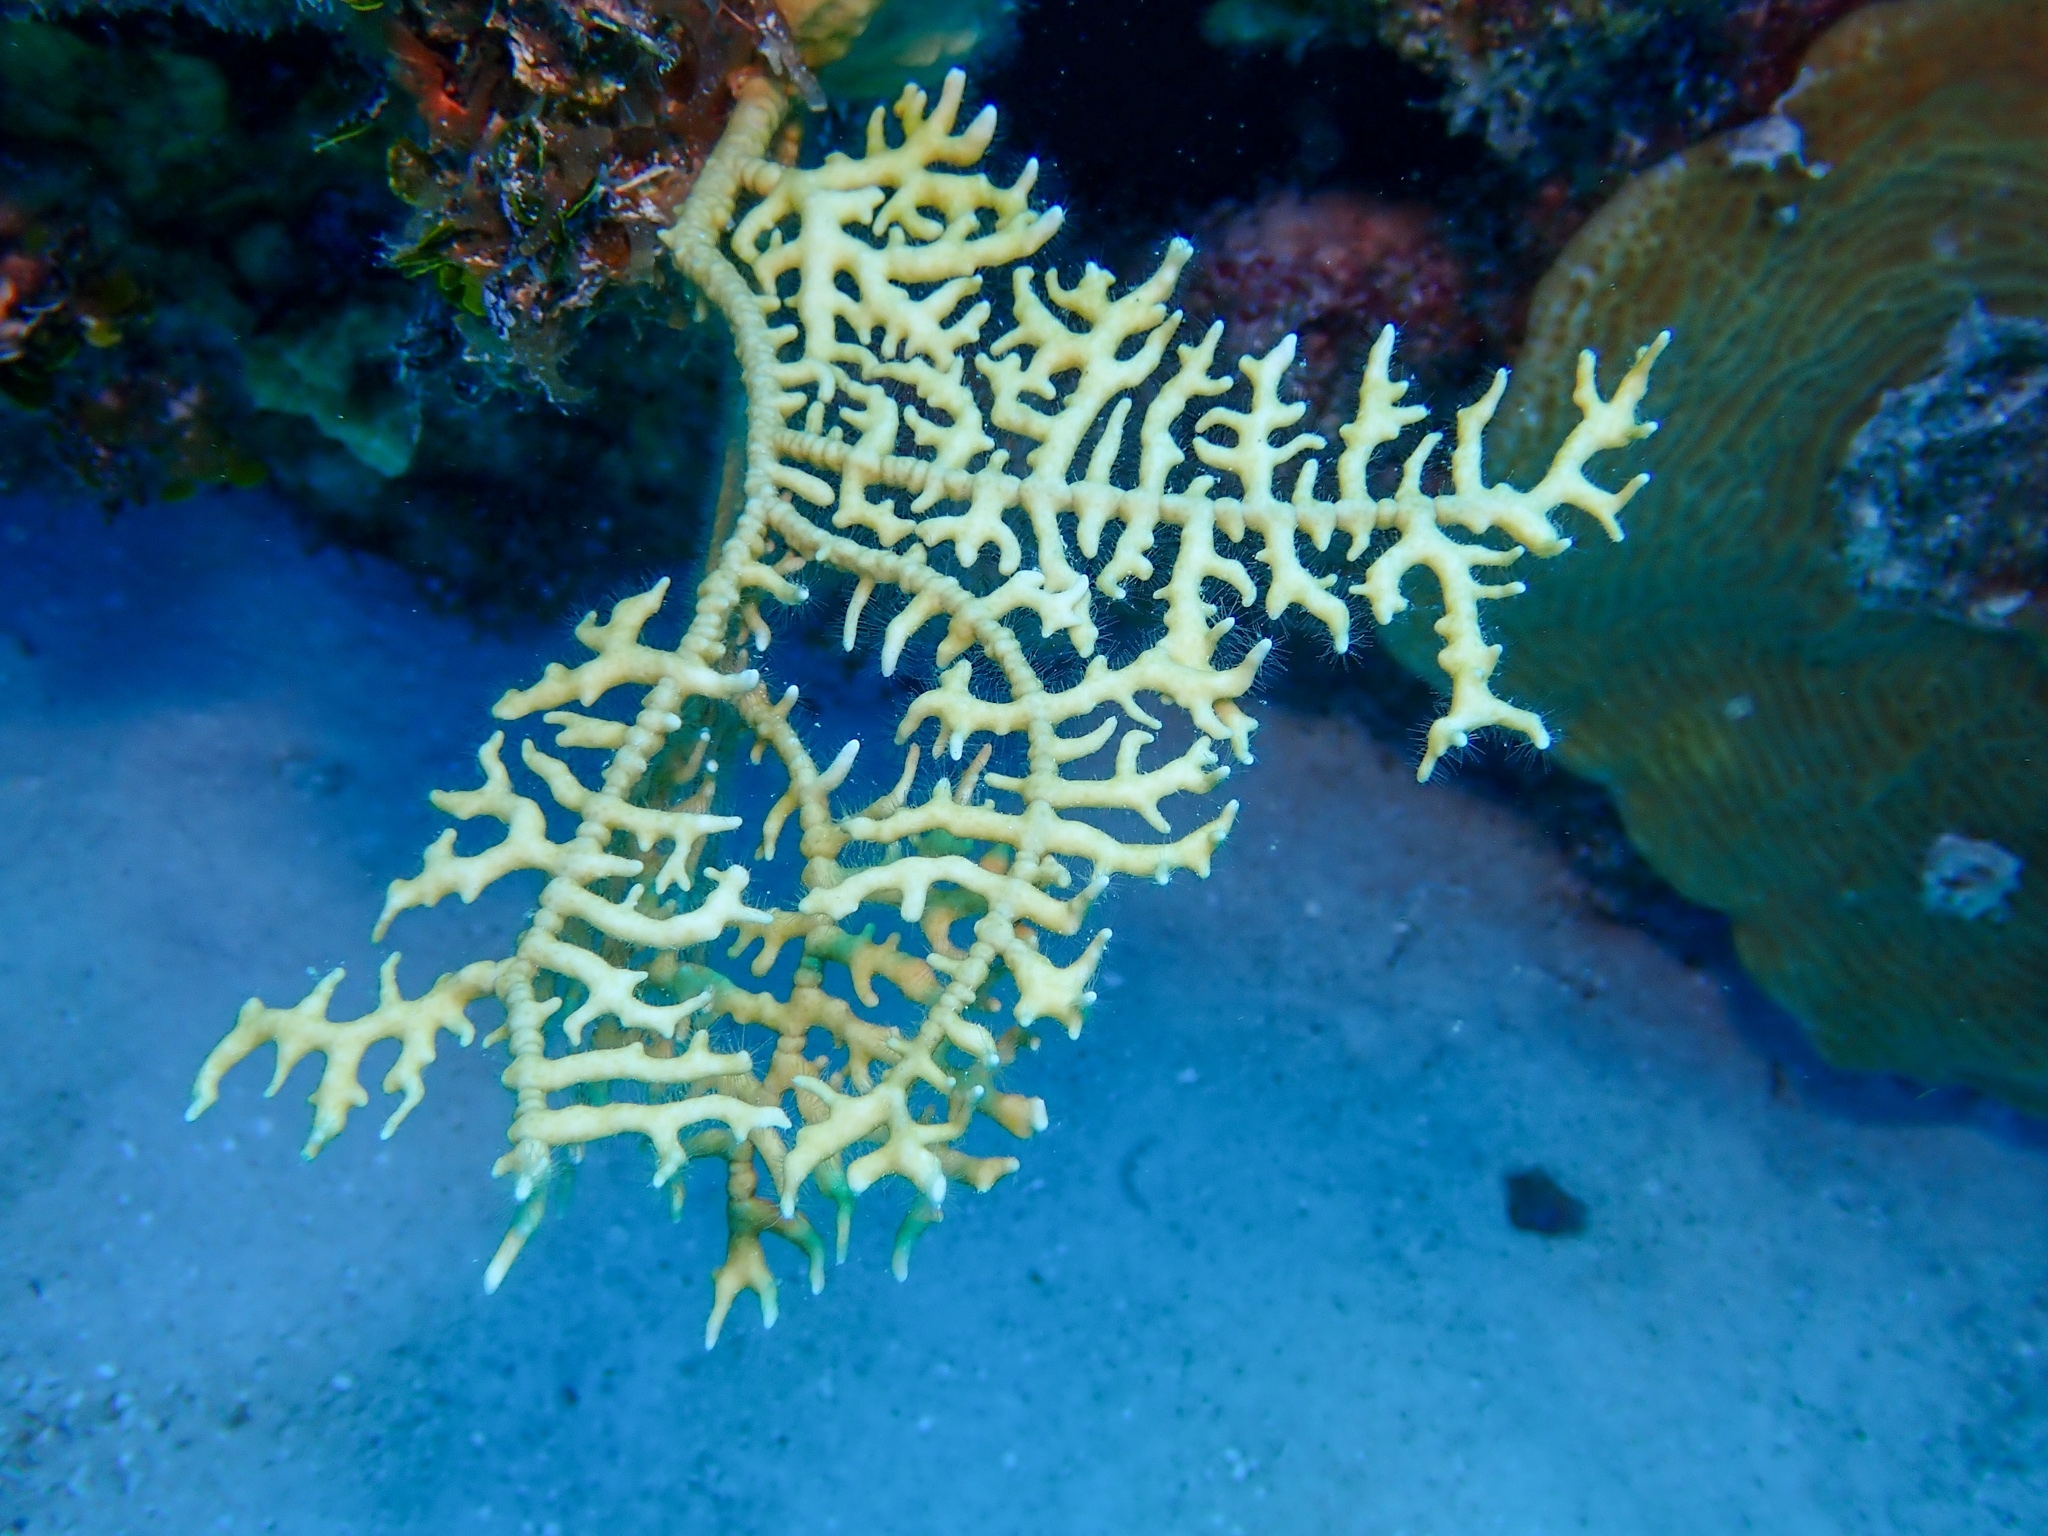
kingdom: Animalia
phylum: Cnidaria
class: Hydrozoa
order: Anthoathecata
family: Milleporidae
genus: Millepora
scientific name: Millepora alcicornis
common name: Branching fire coral
